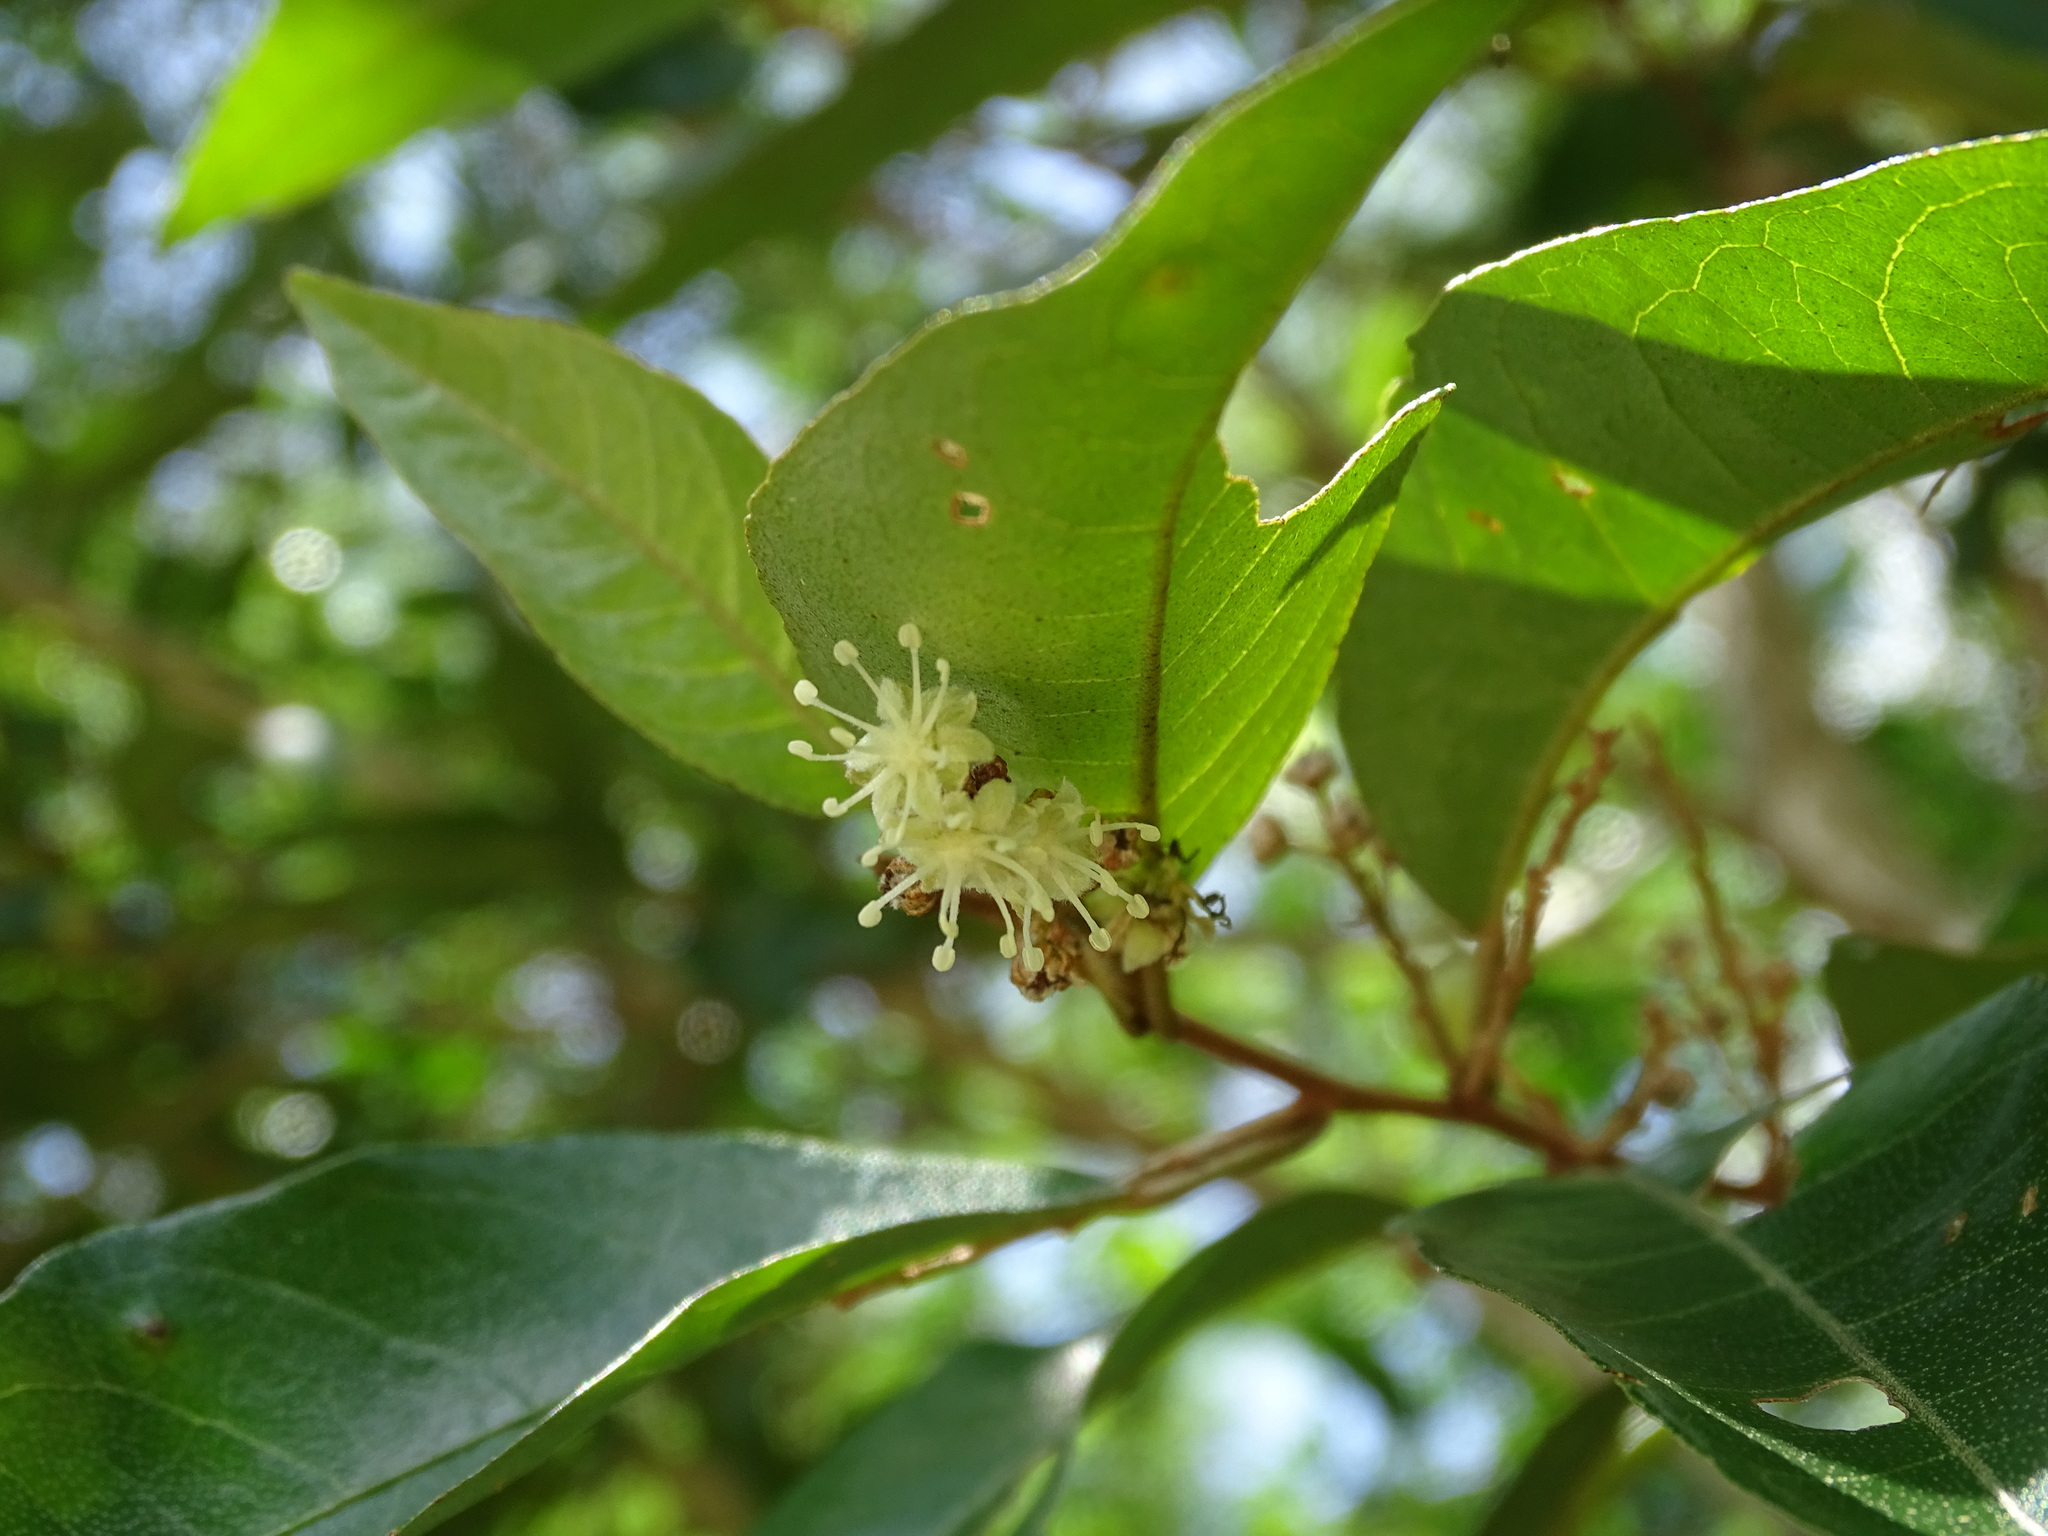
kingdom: Plantae
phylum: Tracheophyta
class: Magnoliopsida
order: Malpighiales
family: Euphorbiaceae
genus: Croton
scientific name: Croton nitens
